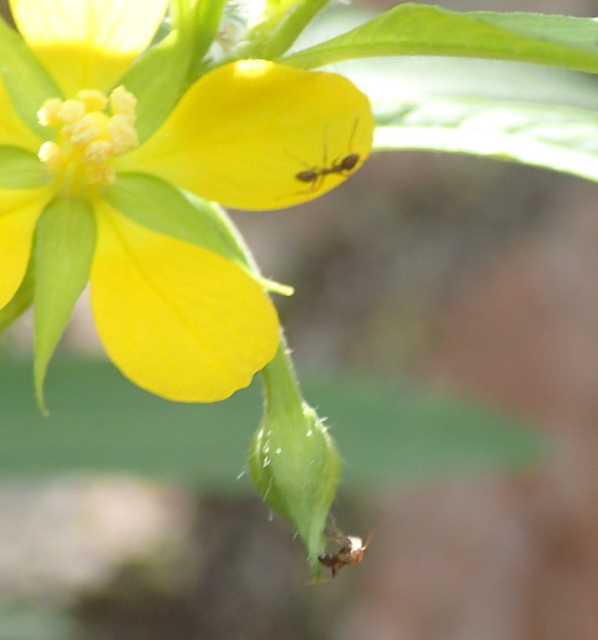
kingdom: Animalia
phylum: Arthropoda
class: Insecta
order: Hymenoptera
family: Formicidae
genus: Linepithema
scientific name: Linepithema humile
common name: Argentine ant
